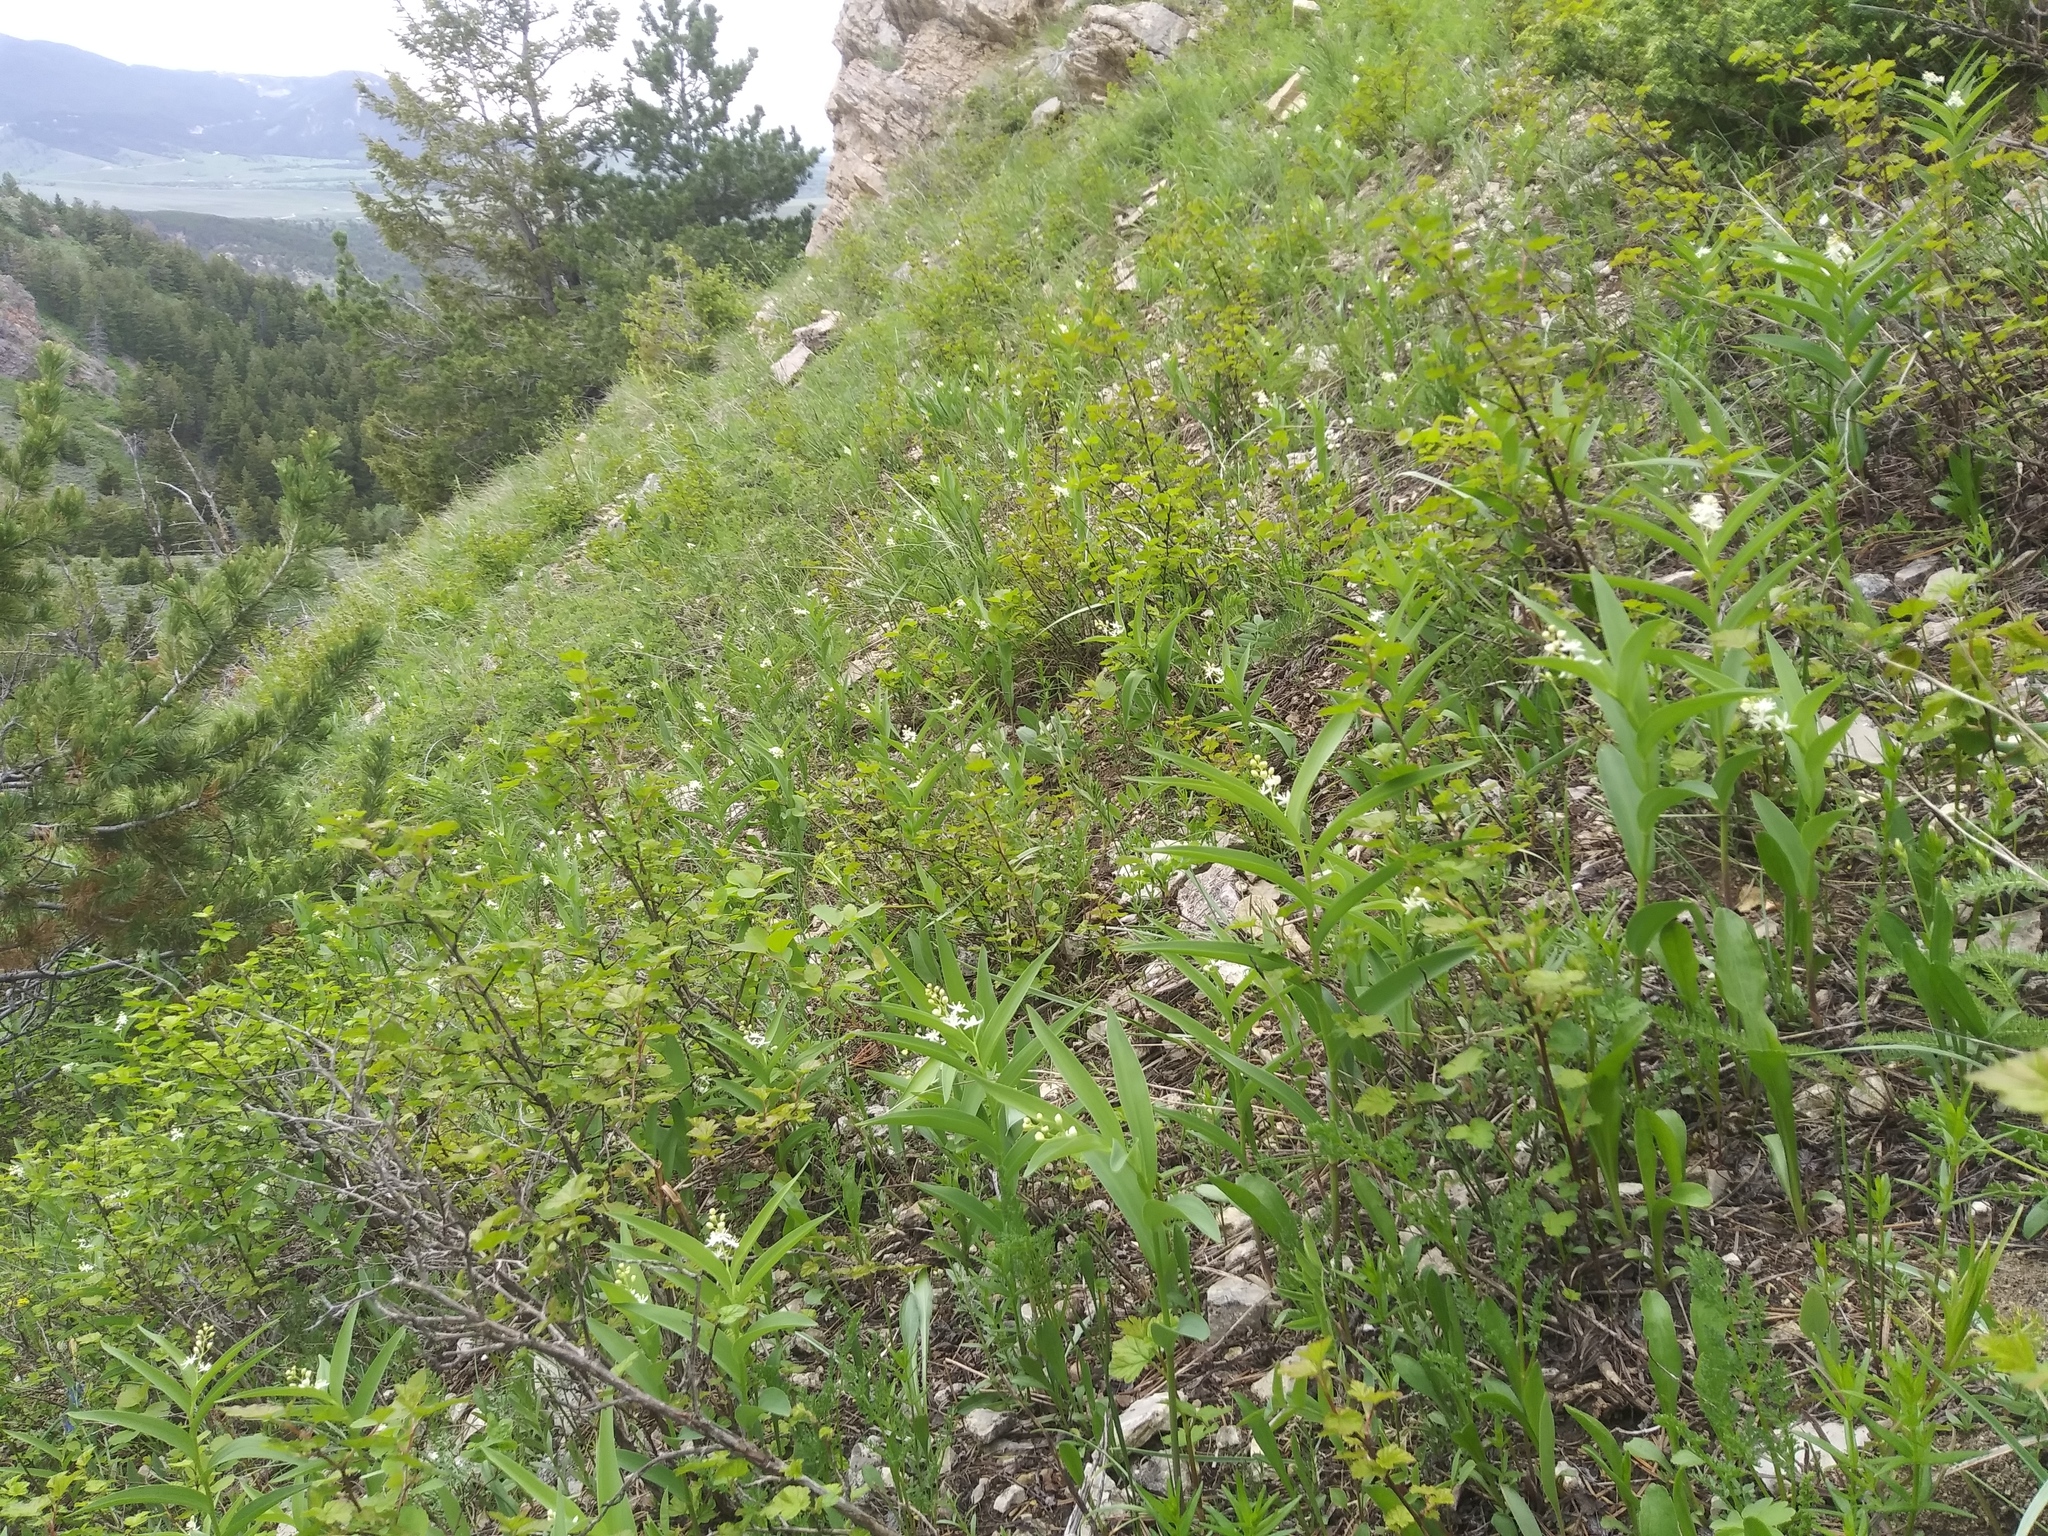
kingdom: Plantae
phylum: Tracheophyta
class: Liliopsida
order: Asparagales
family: Asparagaceae
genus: Maianthemum
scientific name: Maianthemum stellatum
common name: Little false solomon's seal
